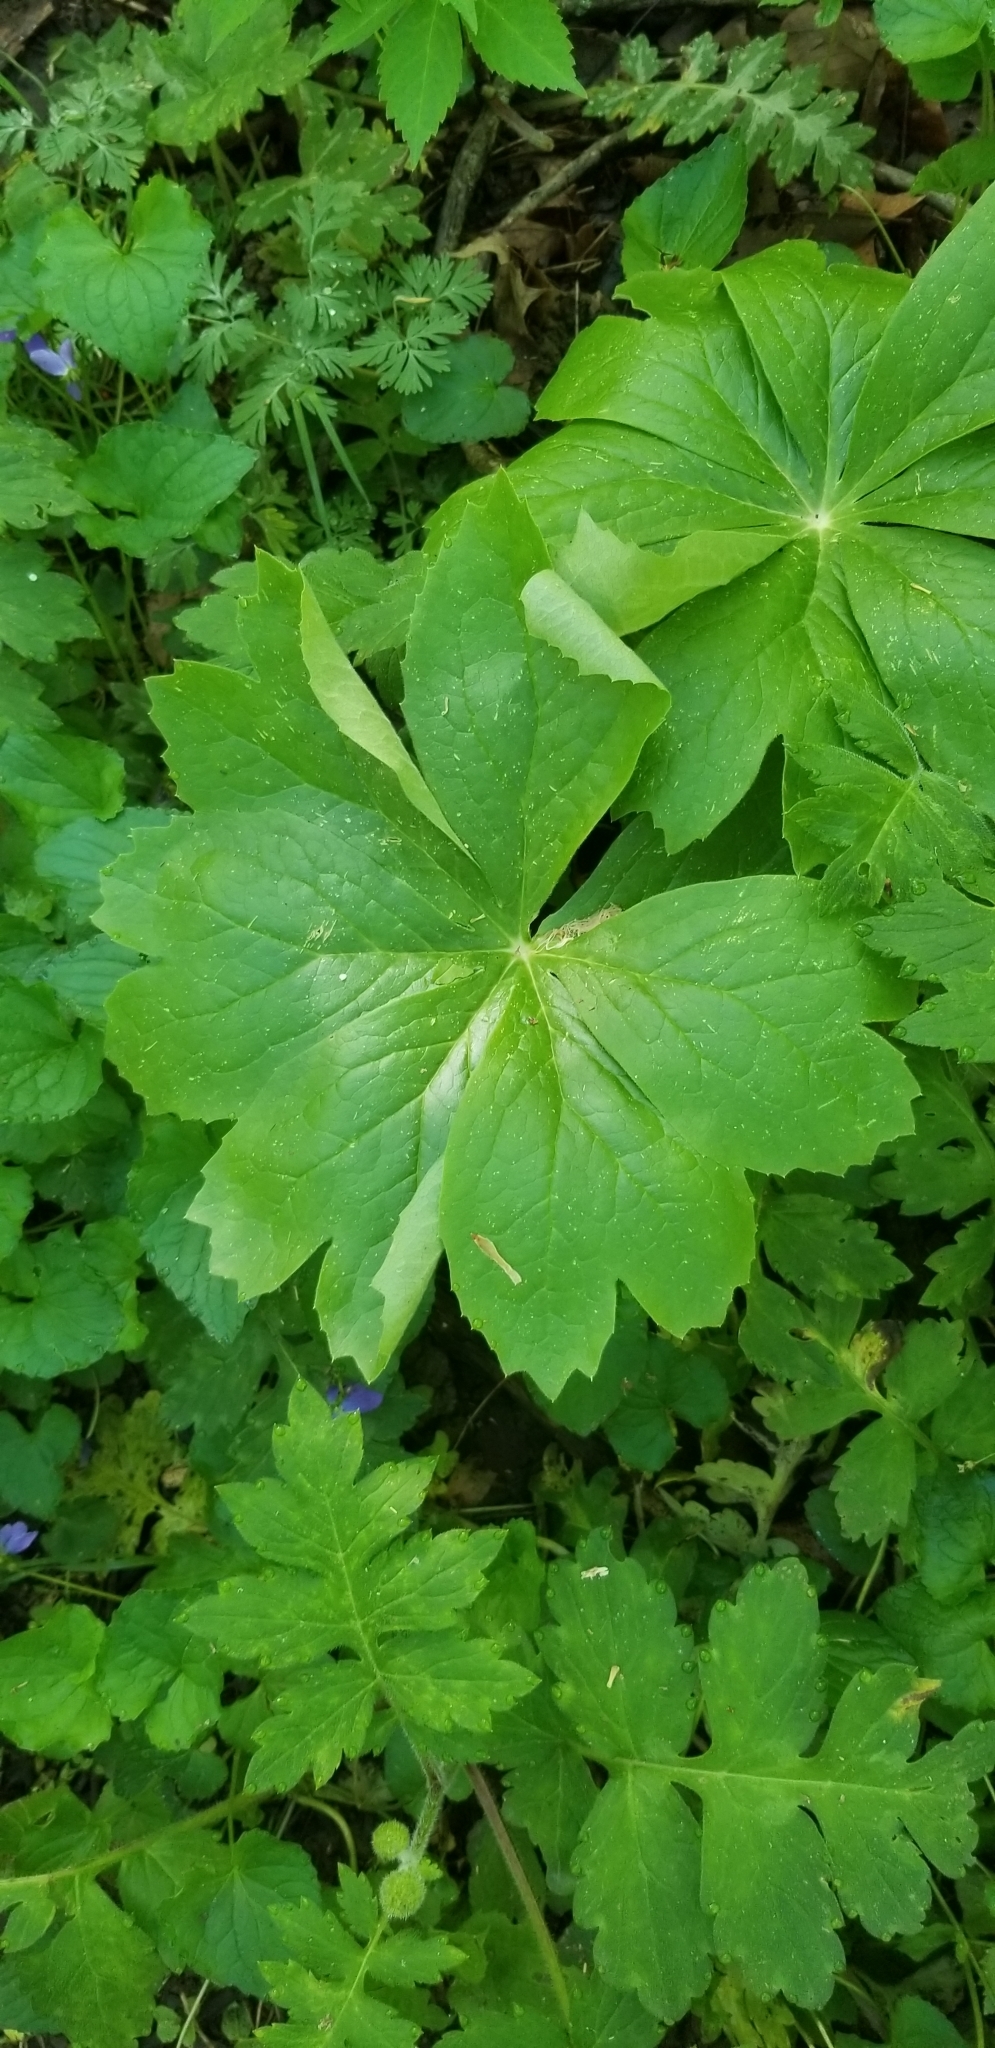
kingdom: Plantae
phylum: Tracheophyta
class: Magnoliopsida
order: Ranunculales
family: Berberidaceae
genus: Podophyllum
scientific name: Podophyllum peltatum
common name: Wild mandrake
